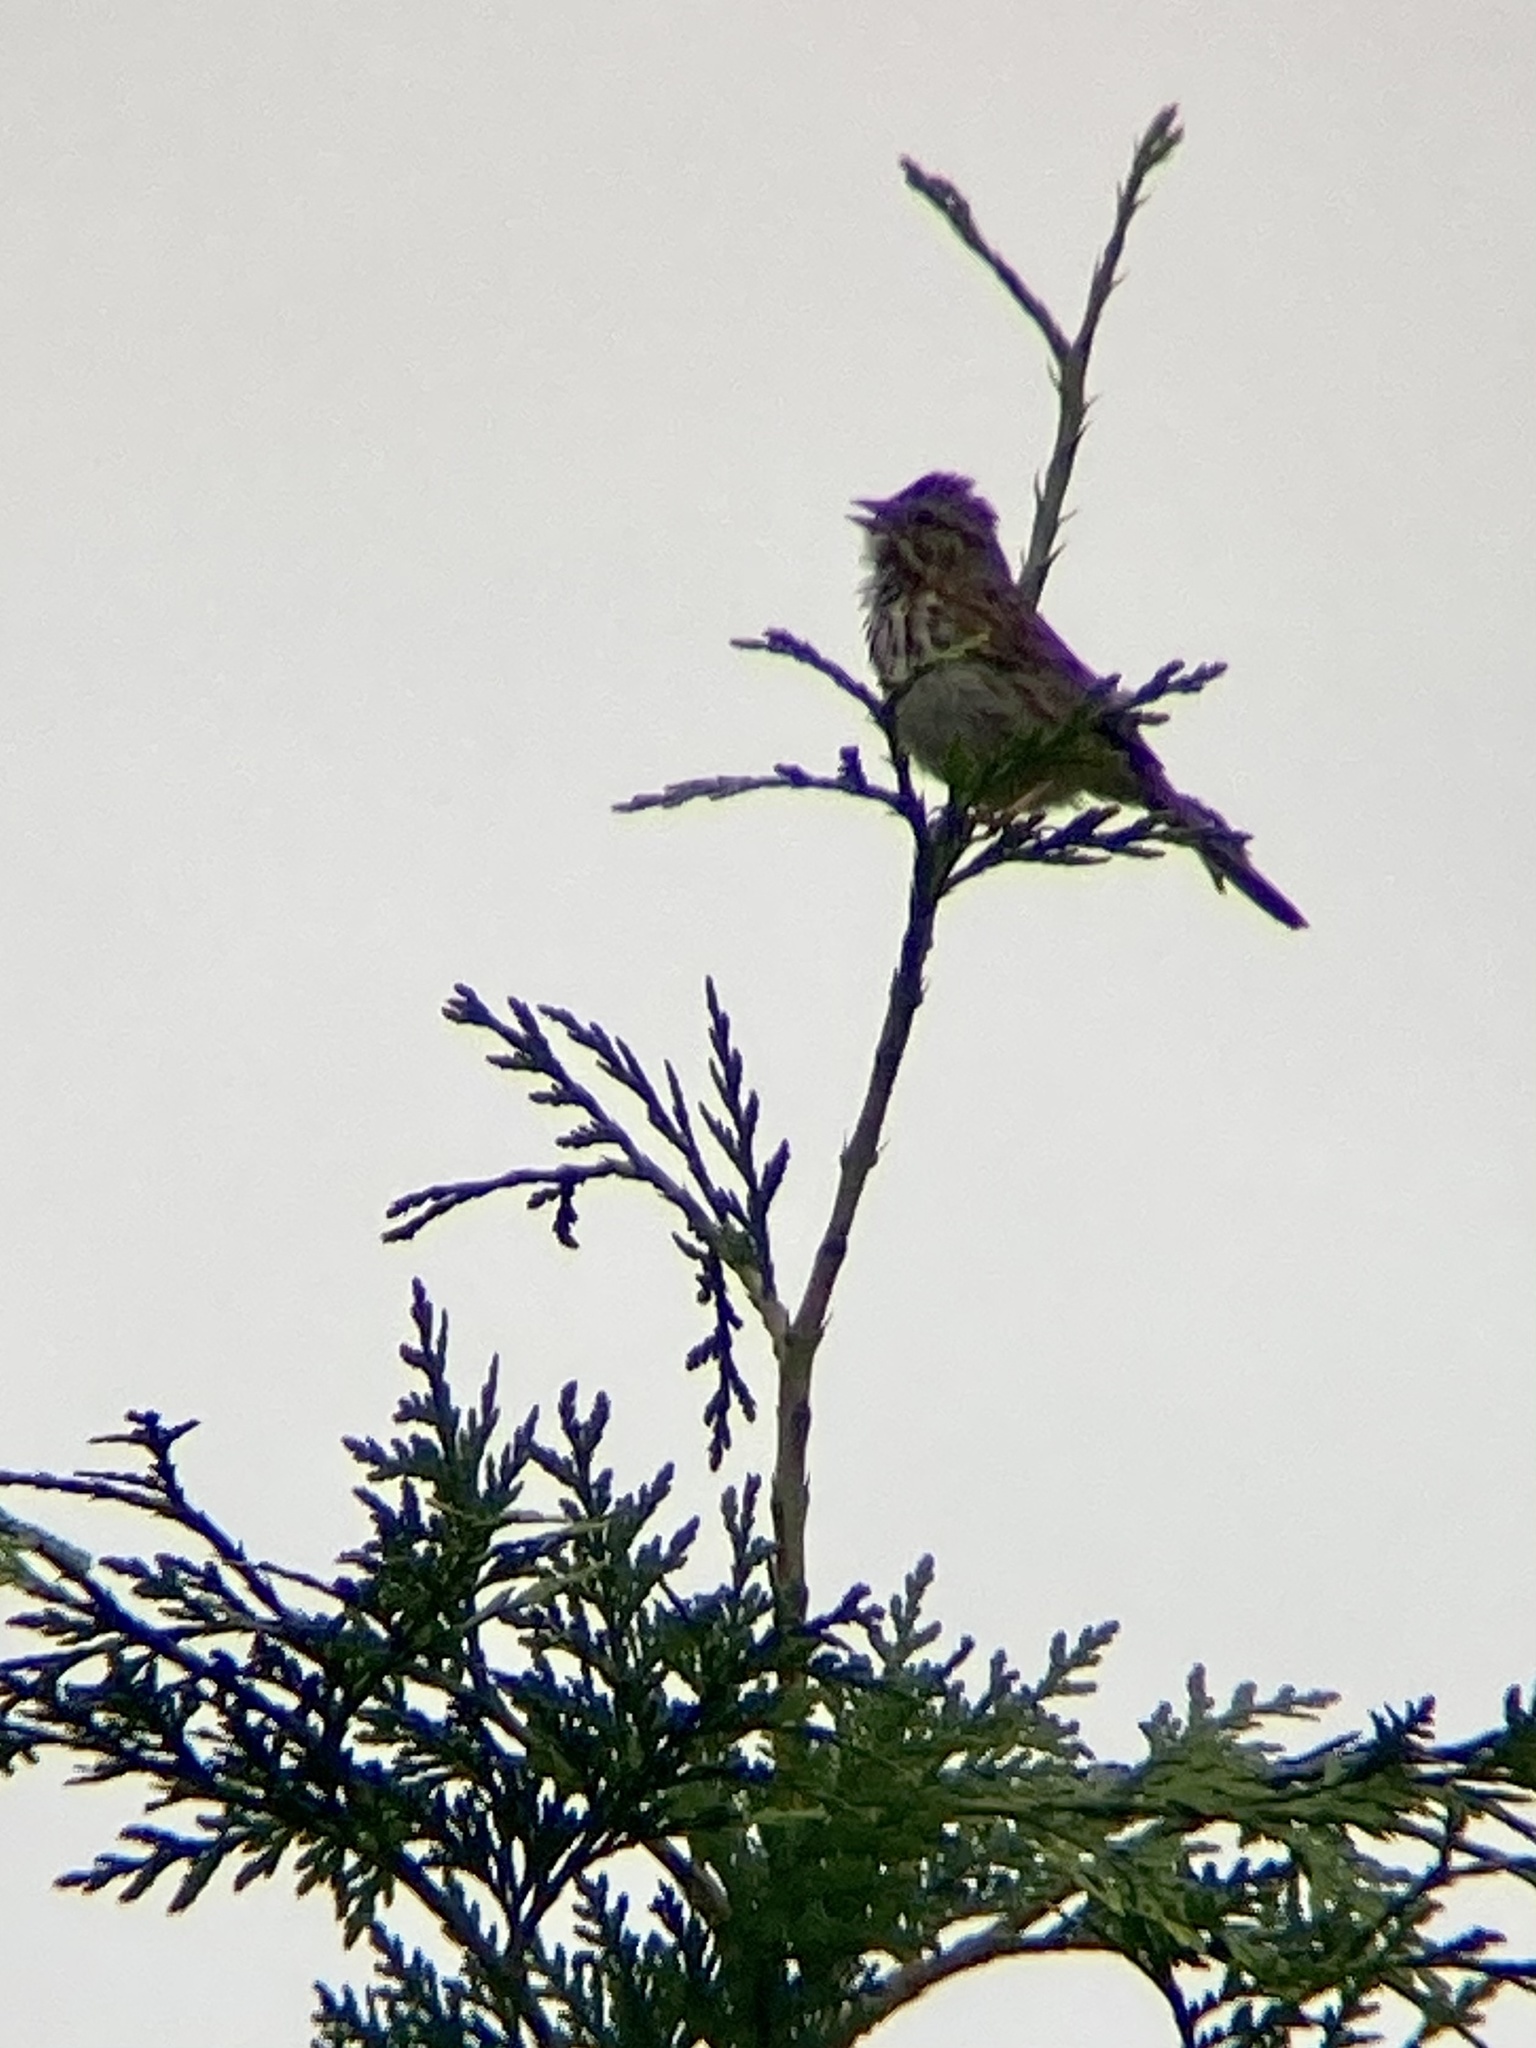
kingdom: Animalia
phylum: Chordata
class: Aves
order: Passeriformes
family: Passerellidae
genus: Melospiza
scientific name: Melospiza melodia
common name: Song sparrow
